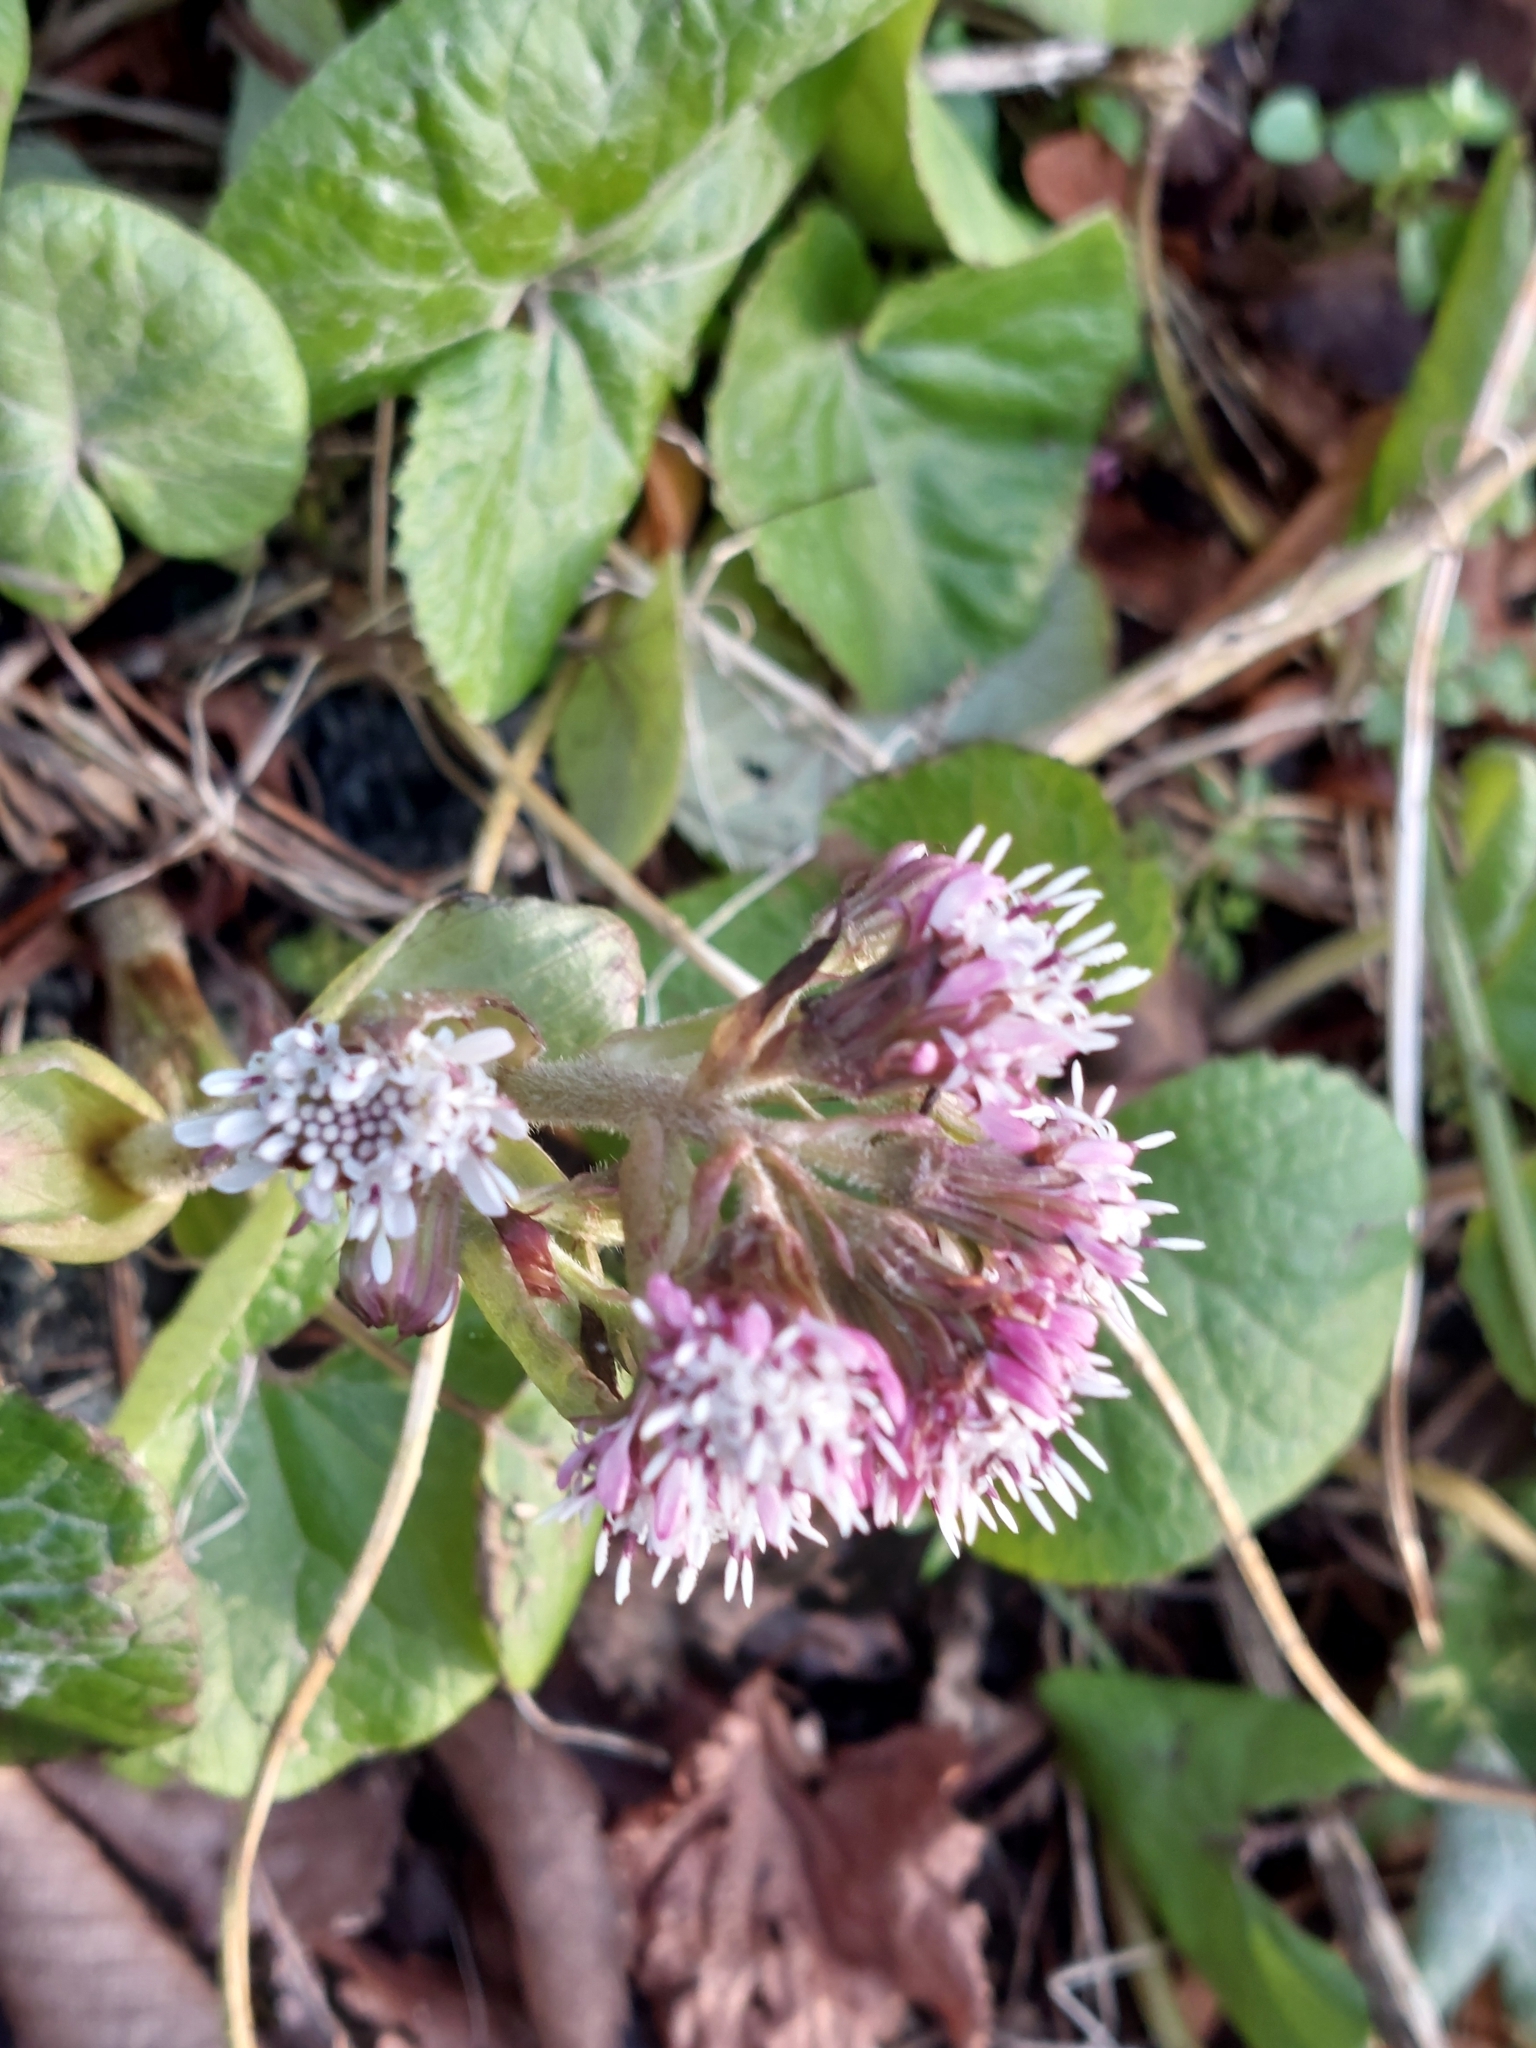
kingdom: Plantae
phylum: Tracheophyta
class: Magnoliopsida
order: Asterales
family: Asteraceae
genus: Petasites
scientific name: Petasites pyrenaicus
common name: Winter heliotrope
